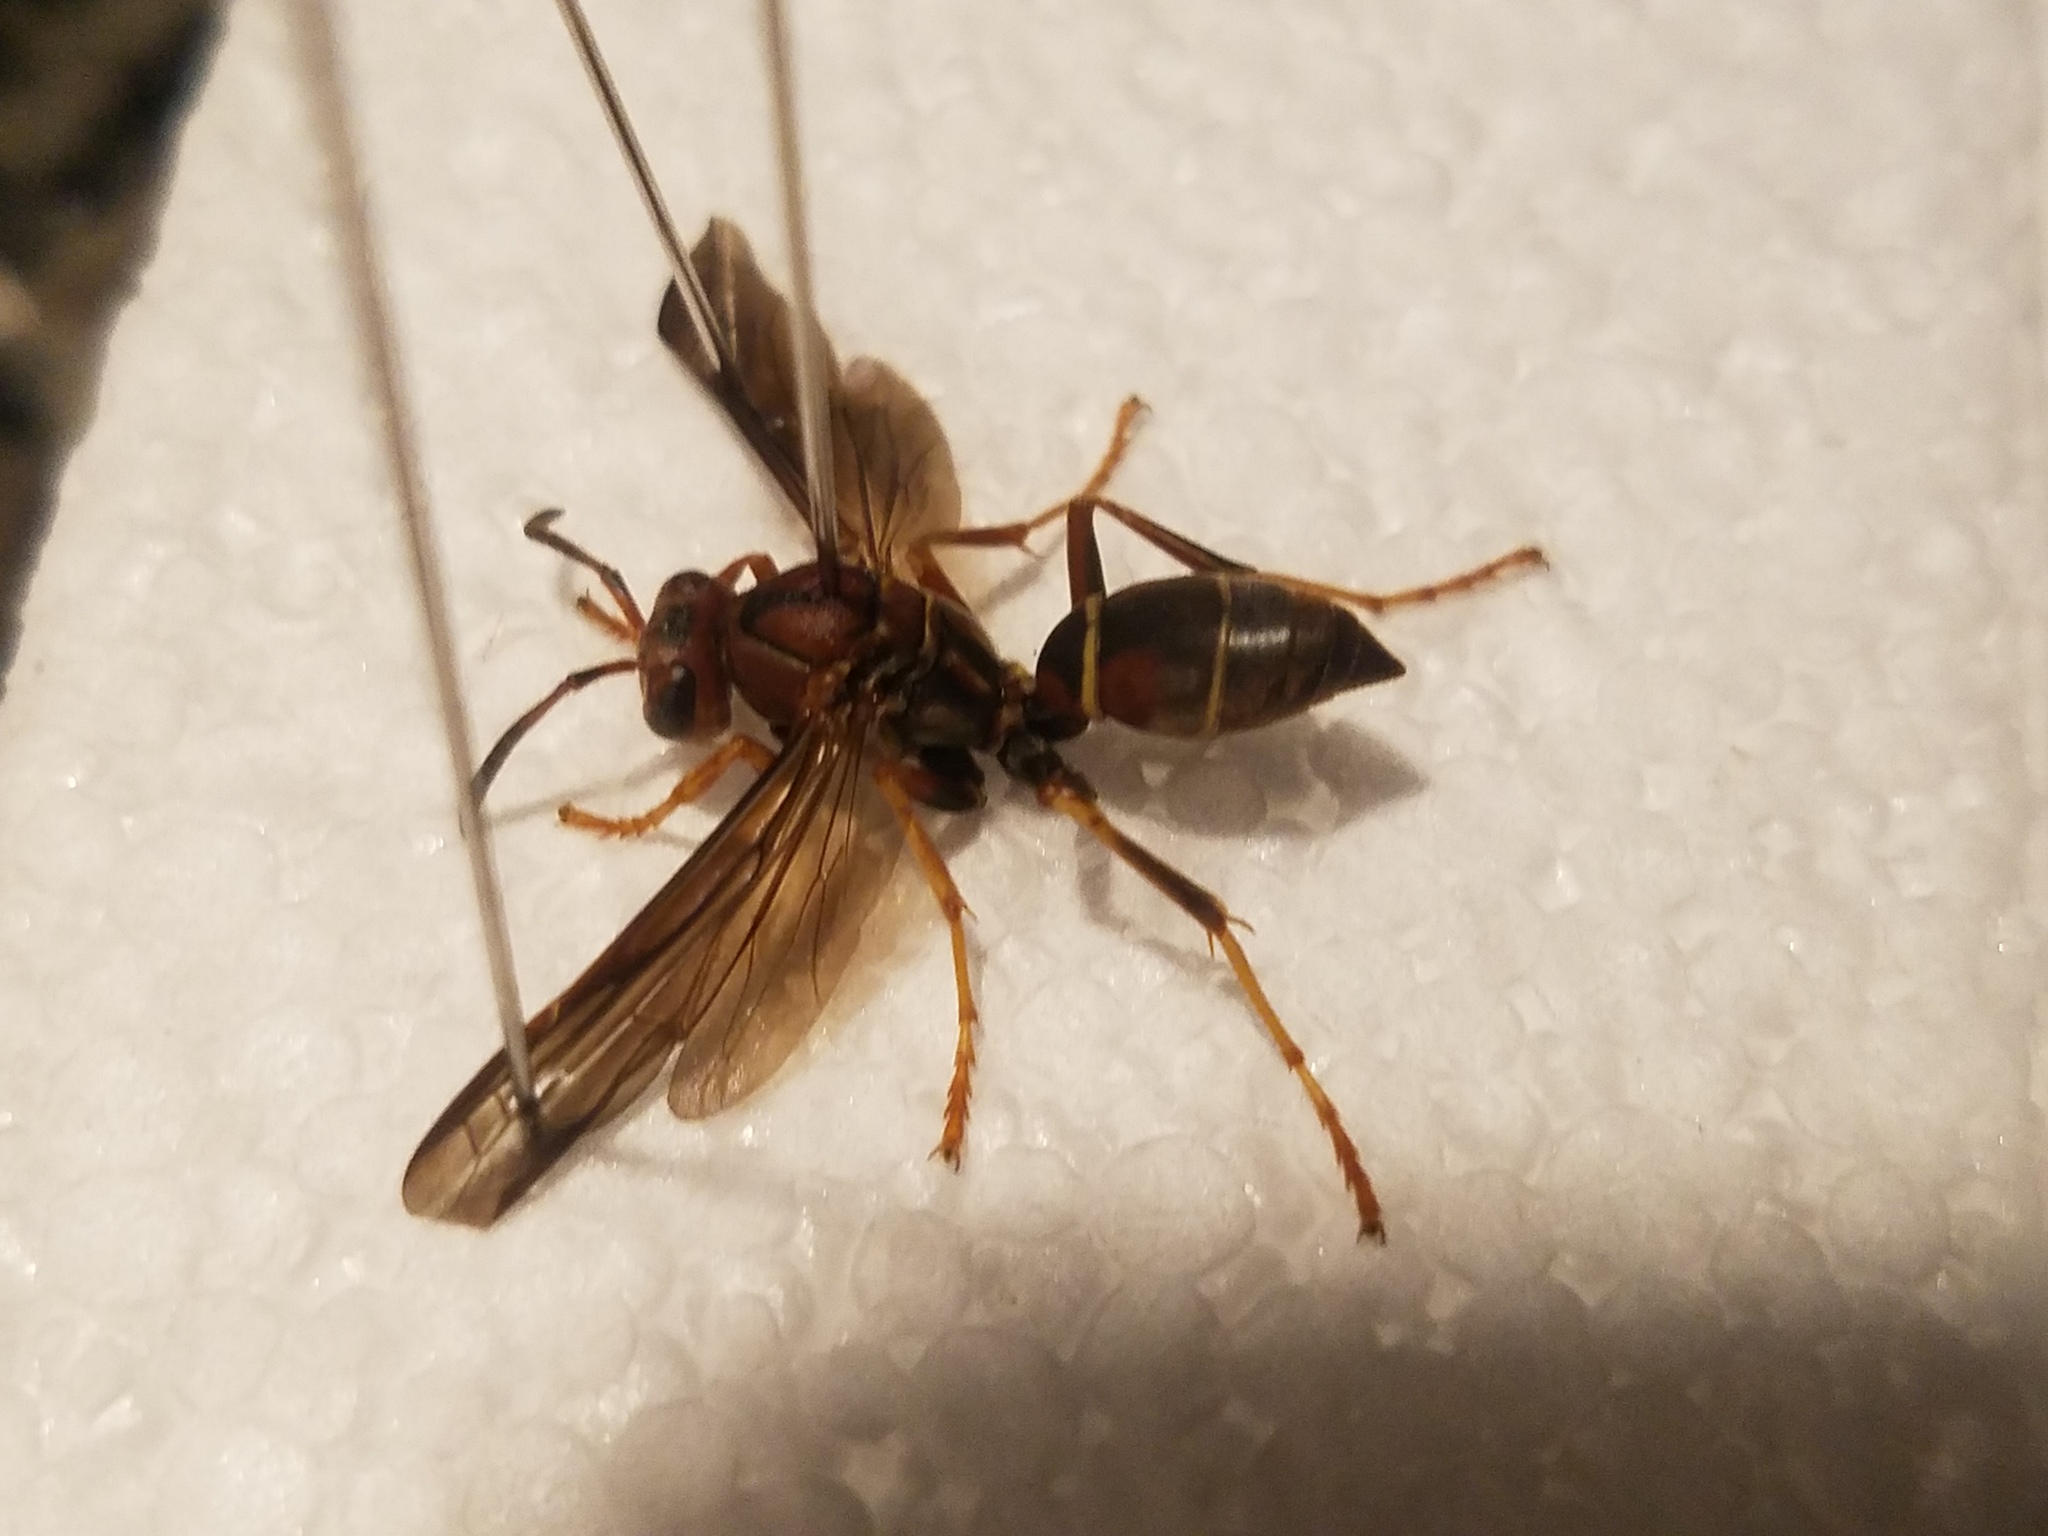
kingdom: Animalia
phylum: Arthropoda
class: Insecta
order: Hymenoptera
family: Eumenidae
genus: Polistes
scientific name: Polistes fuscatus
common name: Dark paper wasp
